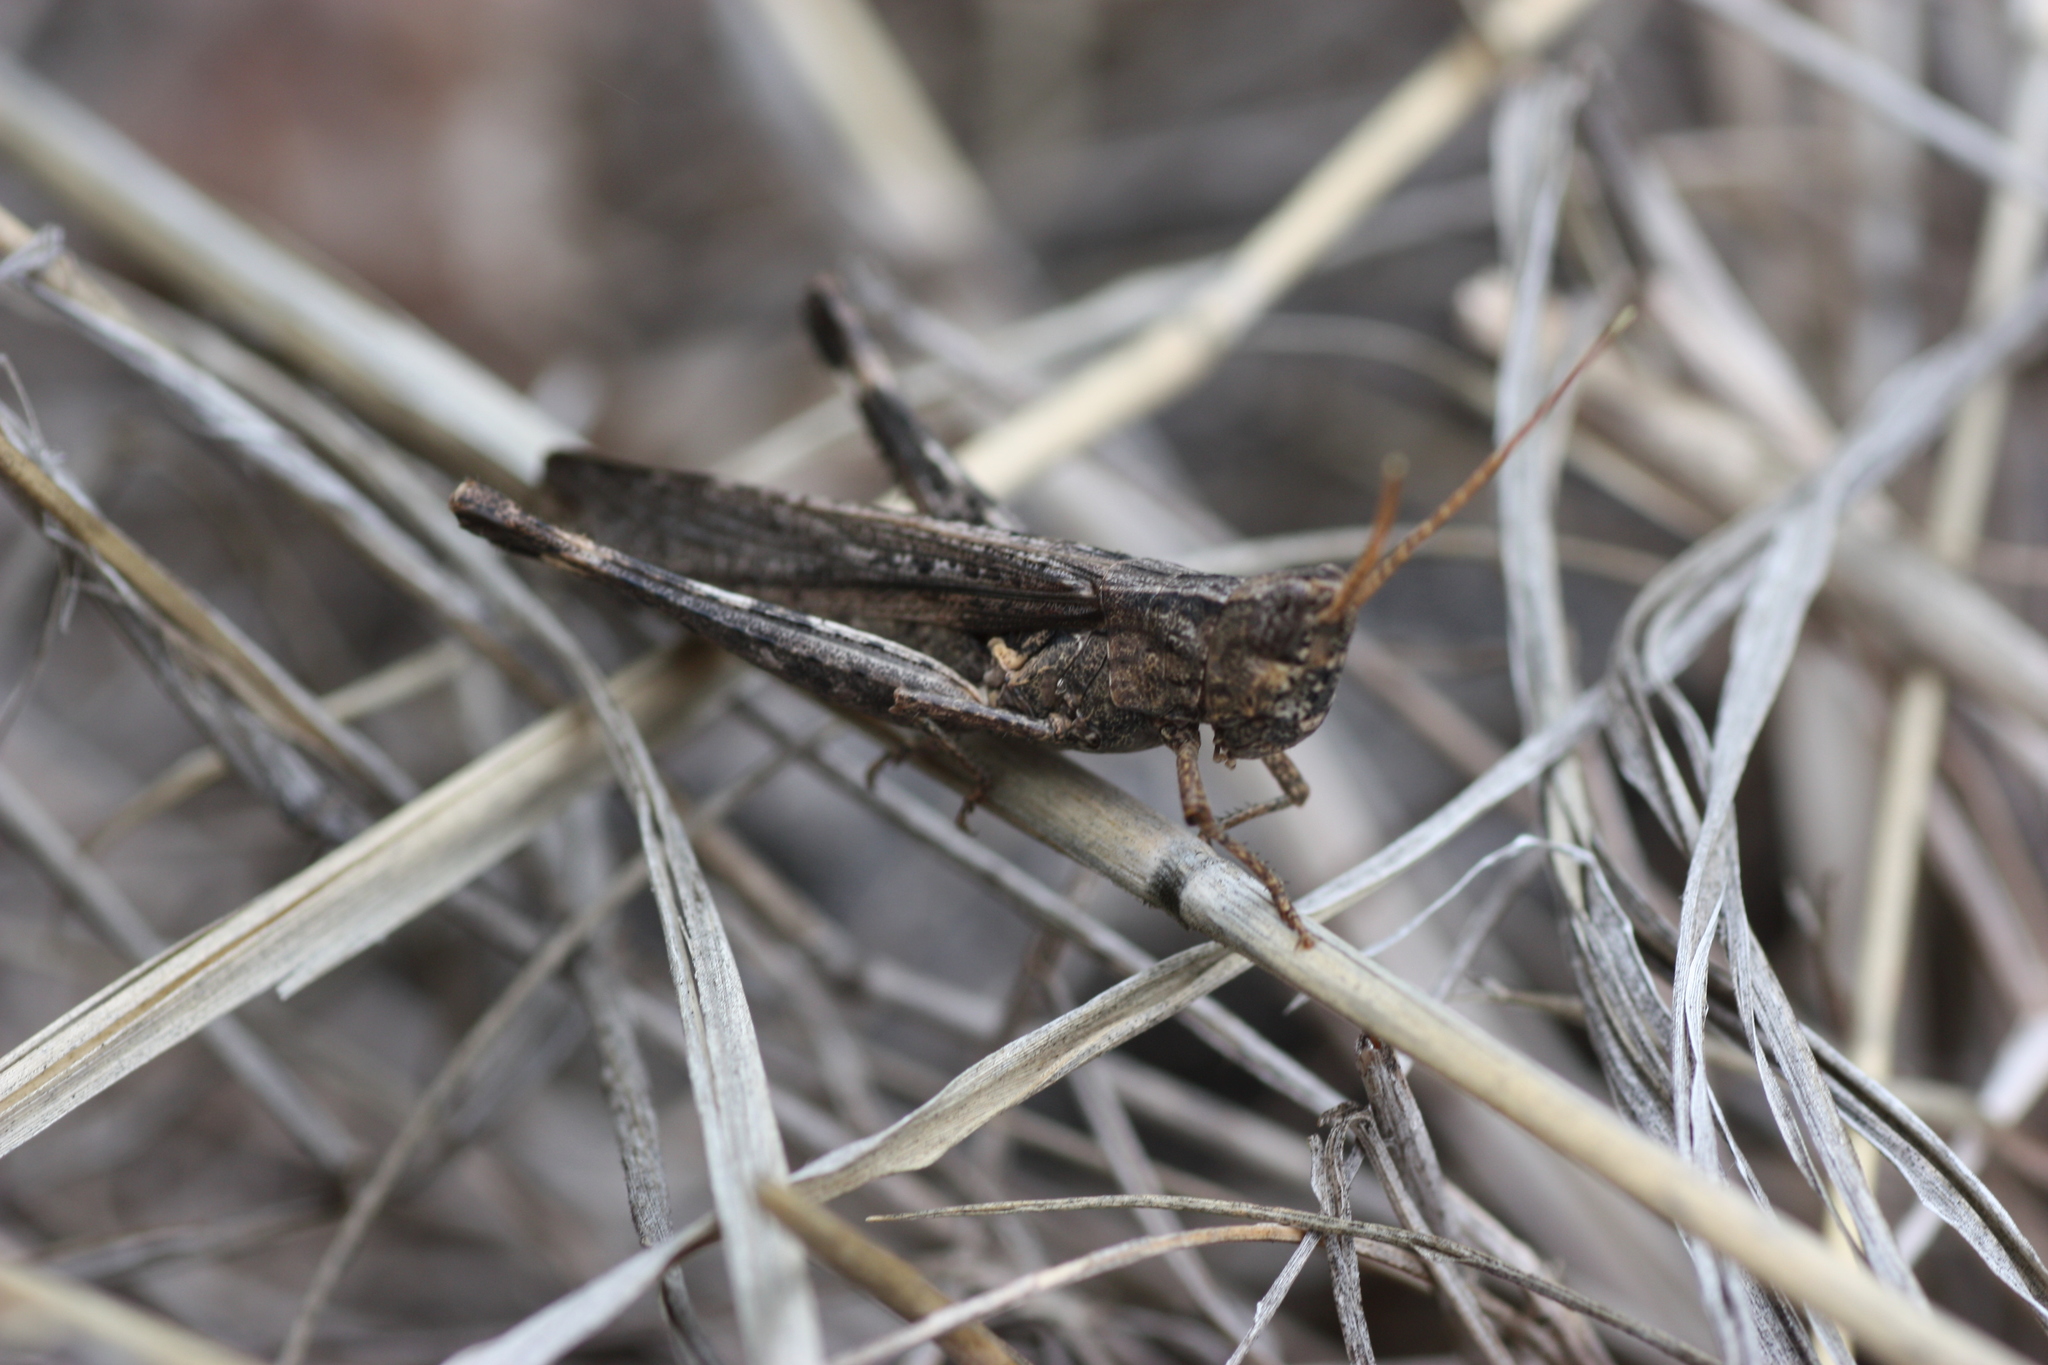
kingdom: Animalia
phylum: Arthropoda
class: Insecta
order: Orthoptera
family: Acrididae
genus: Acantherus
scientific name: Acantherus piperatus
